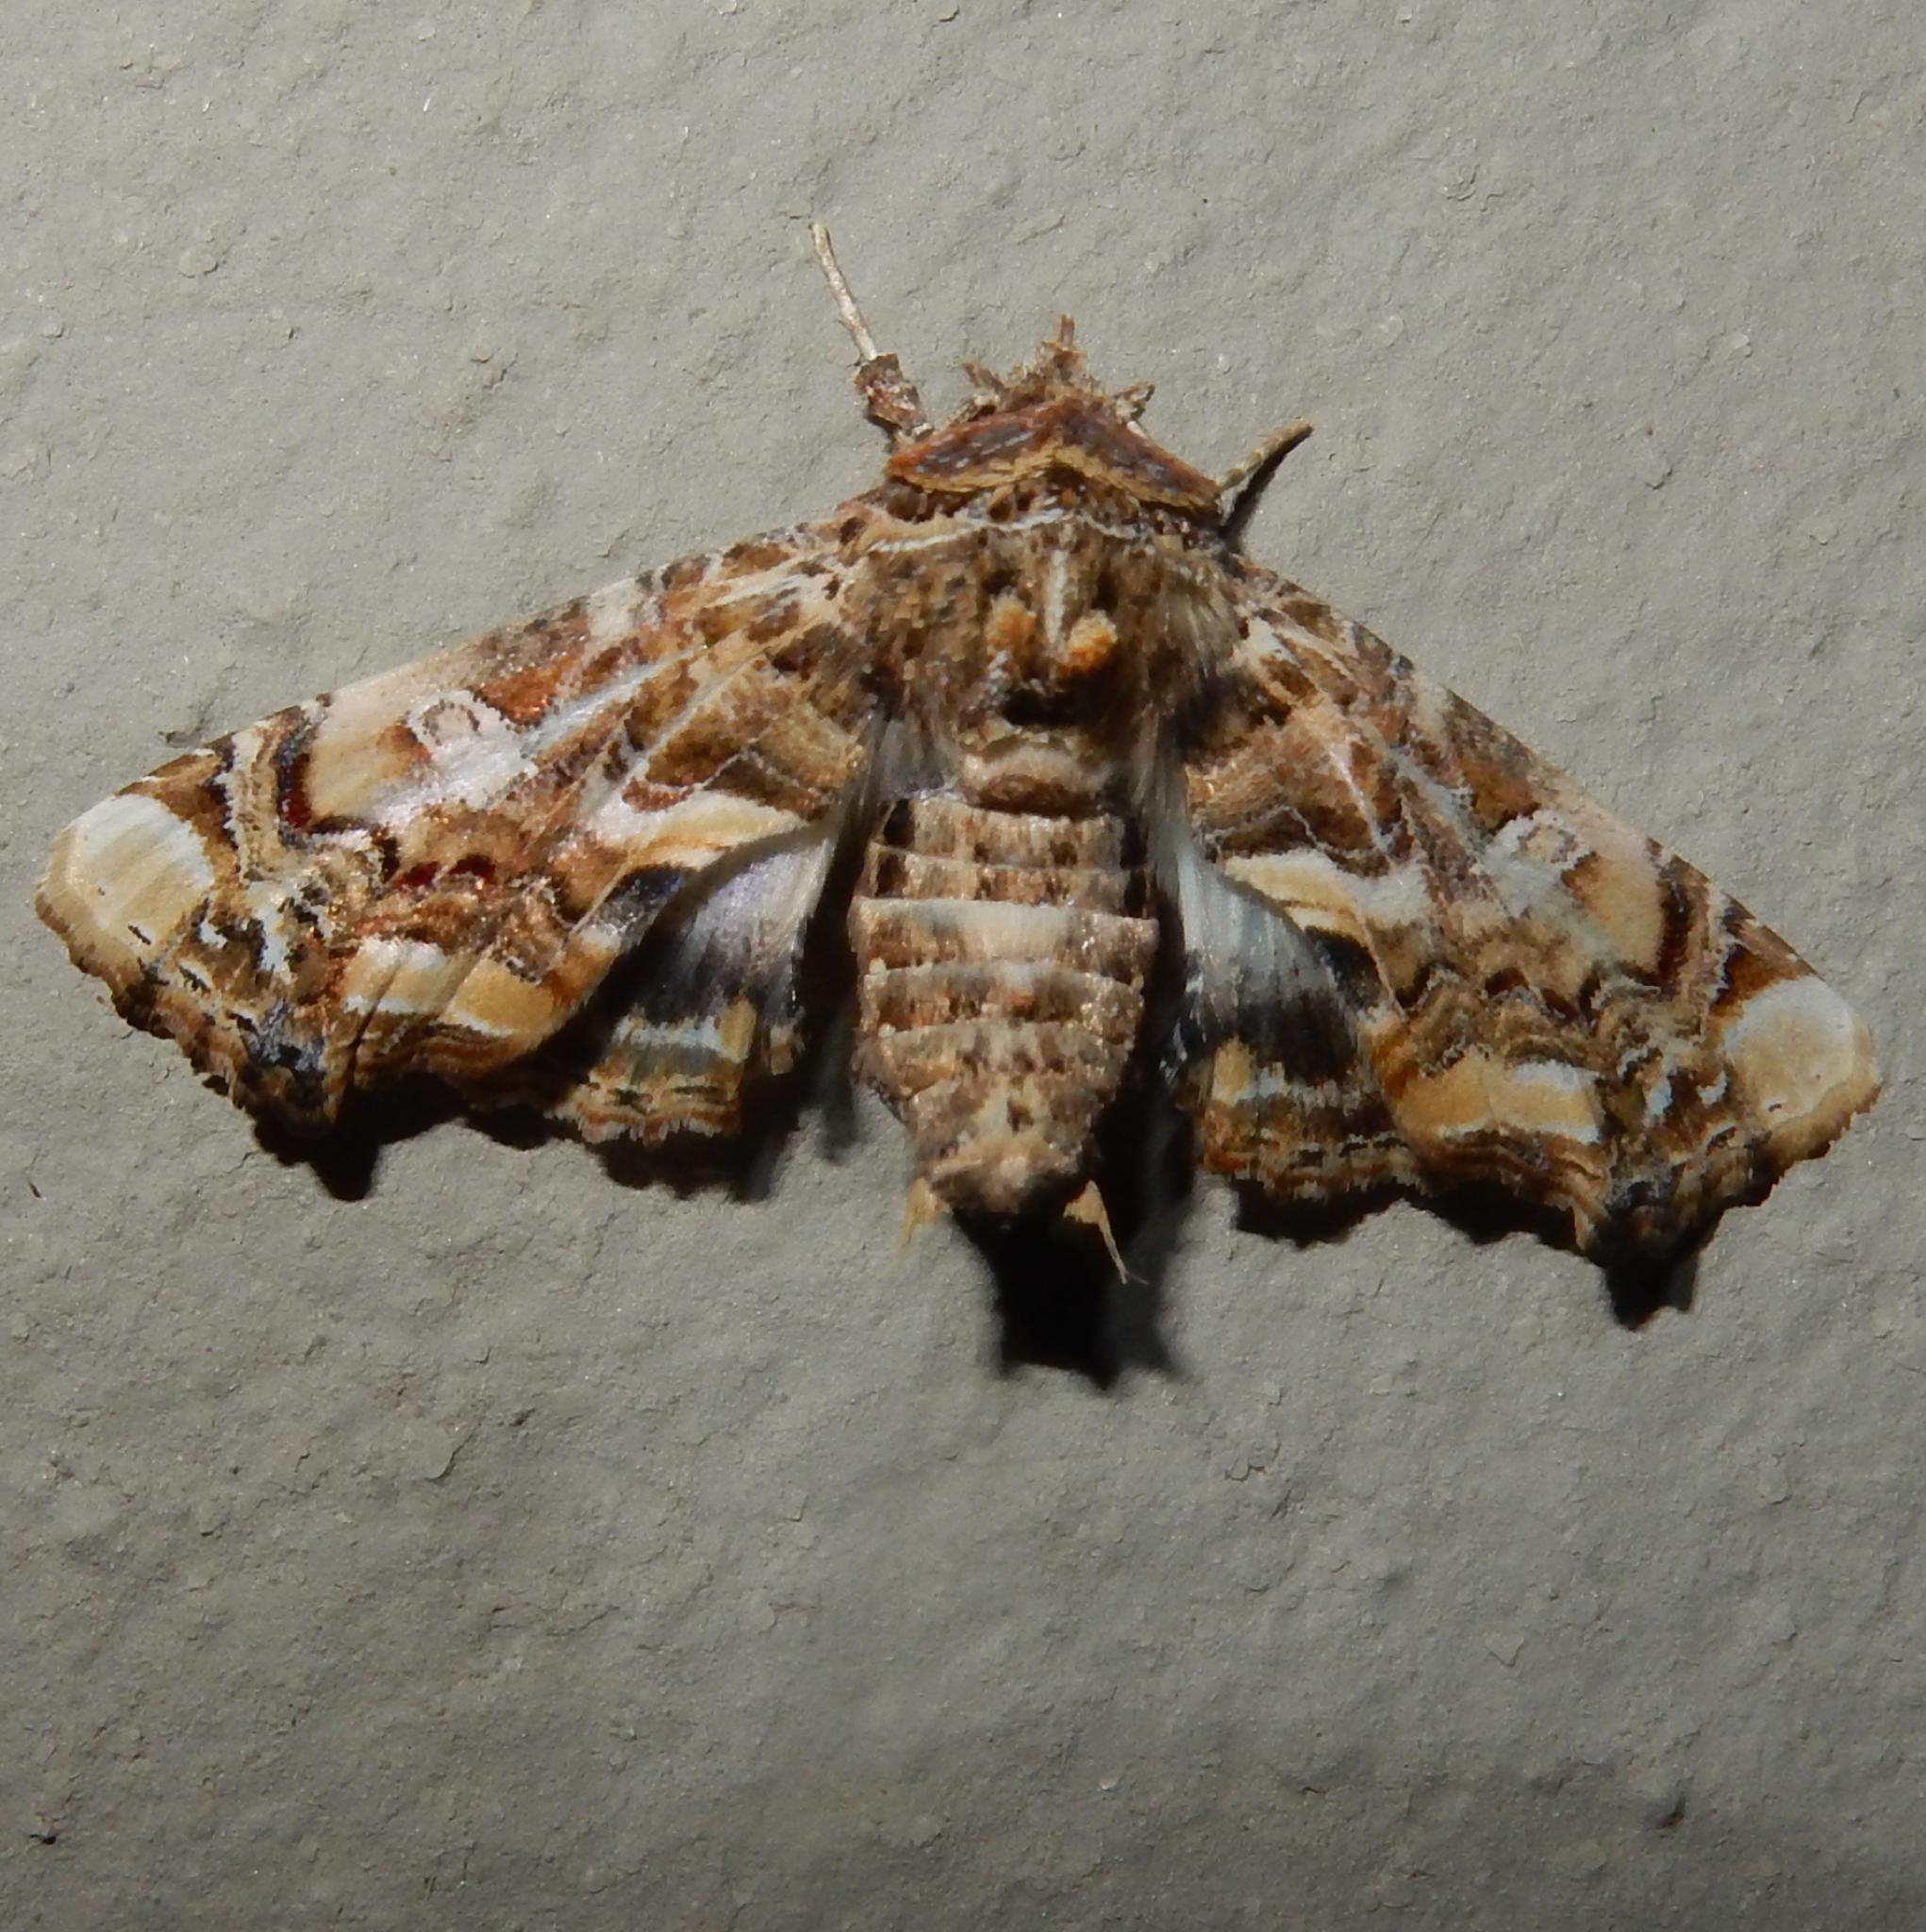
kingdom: Animalia
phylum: Arthropoda
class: Insecta
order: Lepidoptera
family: Euteliidae
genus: Eutelia
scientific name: Eutelia adulatrix
